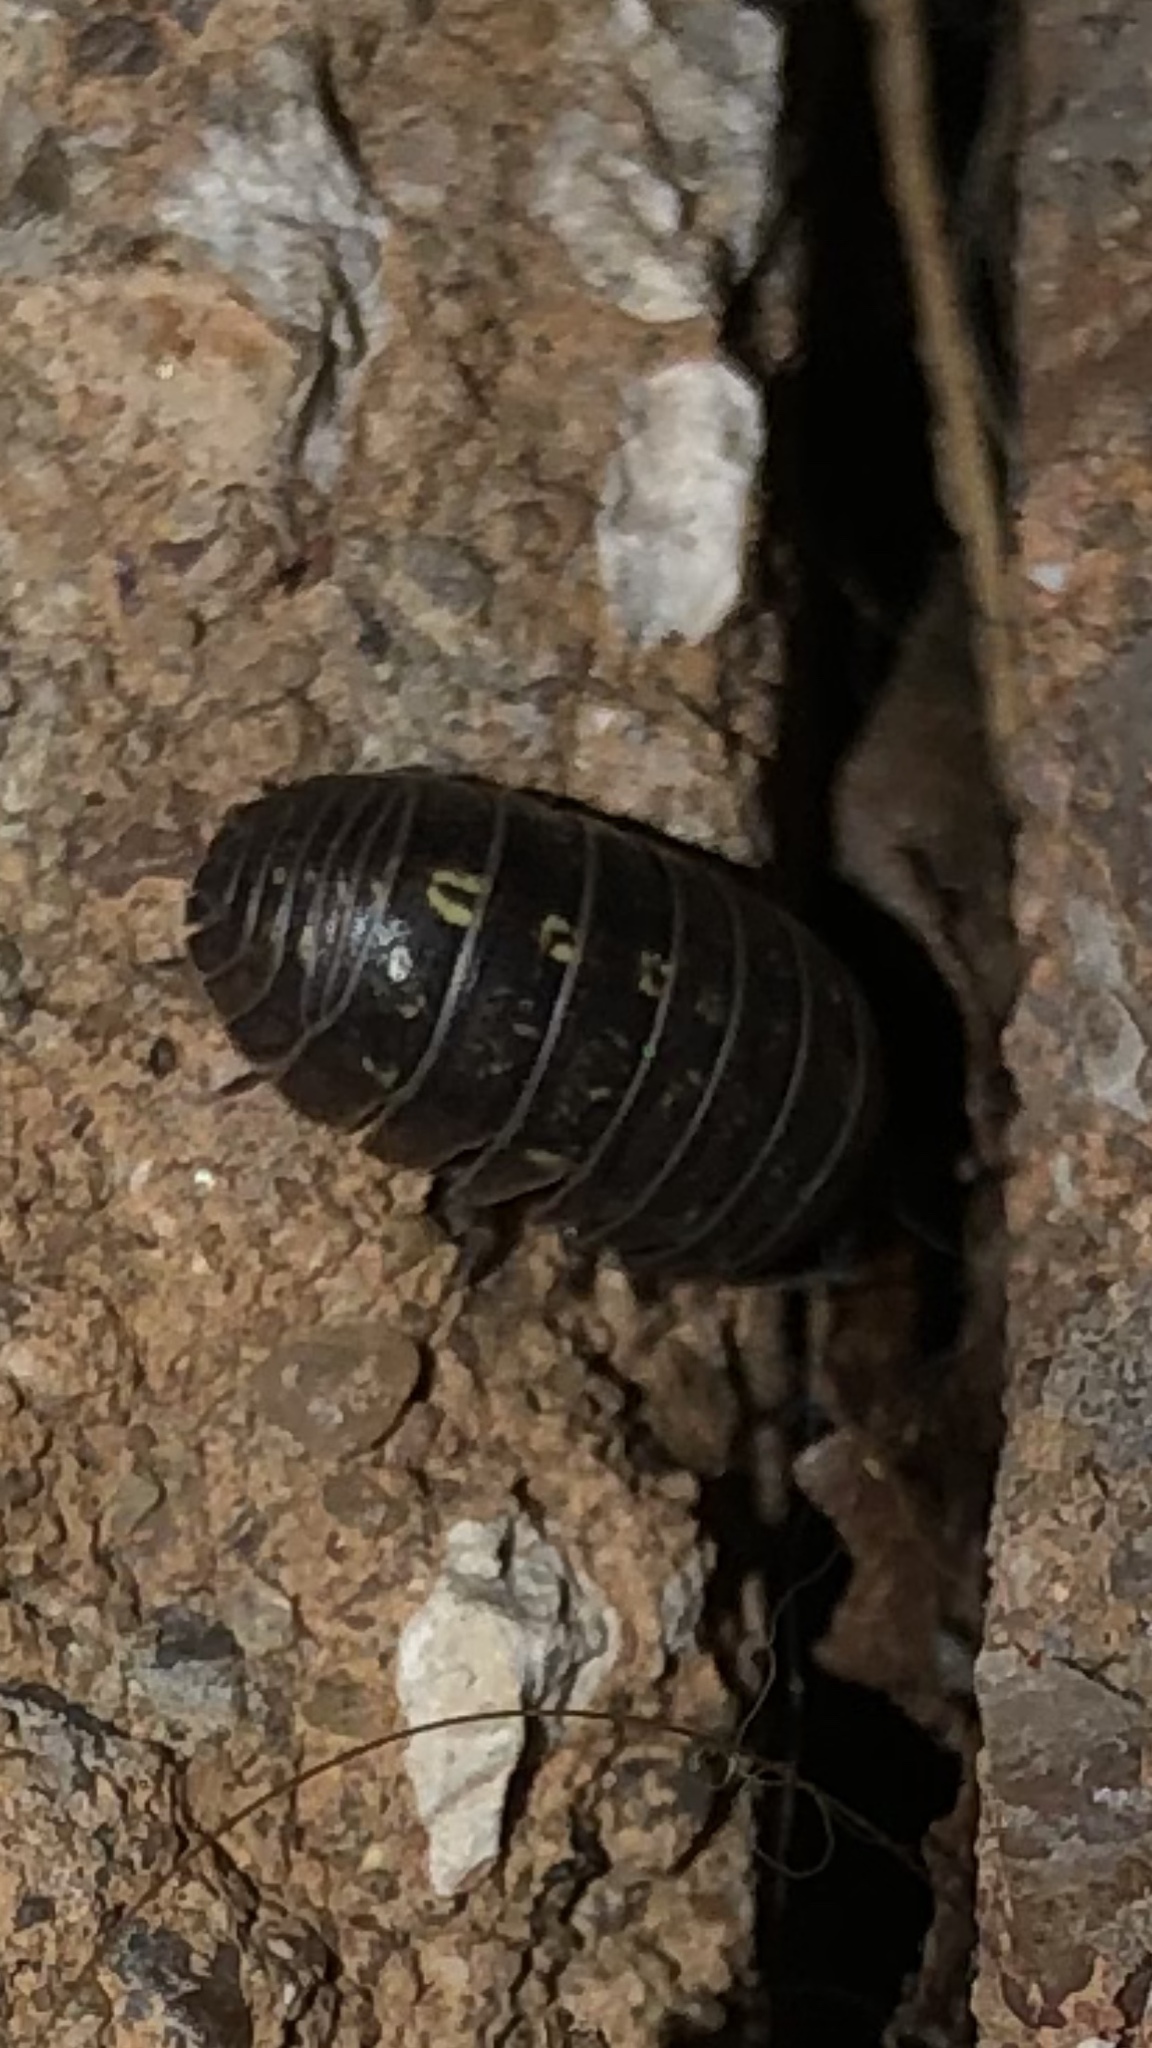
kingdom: Animalia
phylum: Arthropoda
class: Malacostraca
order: Isopoda
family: Armadillidiidae
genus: Armadillidium
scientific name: Armadillidium vulgare
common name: Common pill woodlouse
